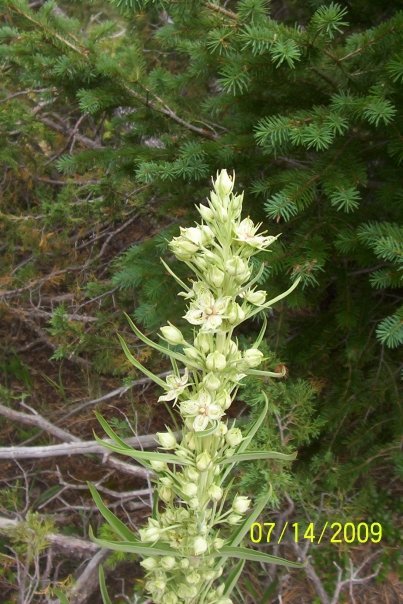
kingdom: Plantae
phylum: Tracheophyta
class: Magnoliopsida
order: Gentianales
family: Gentianaceae
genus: Frasera
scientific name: Frasera speciosa
